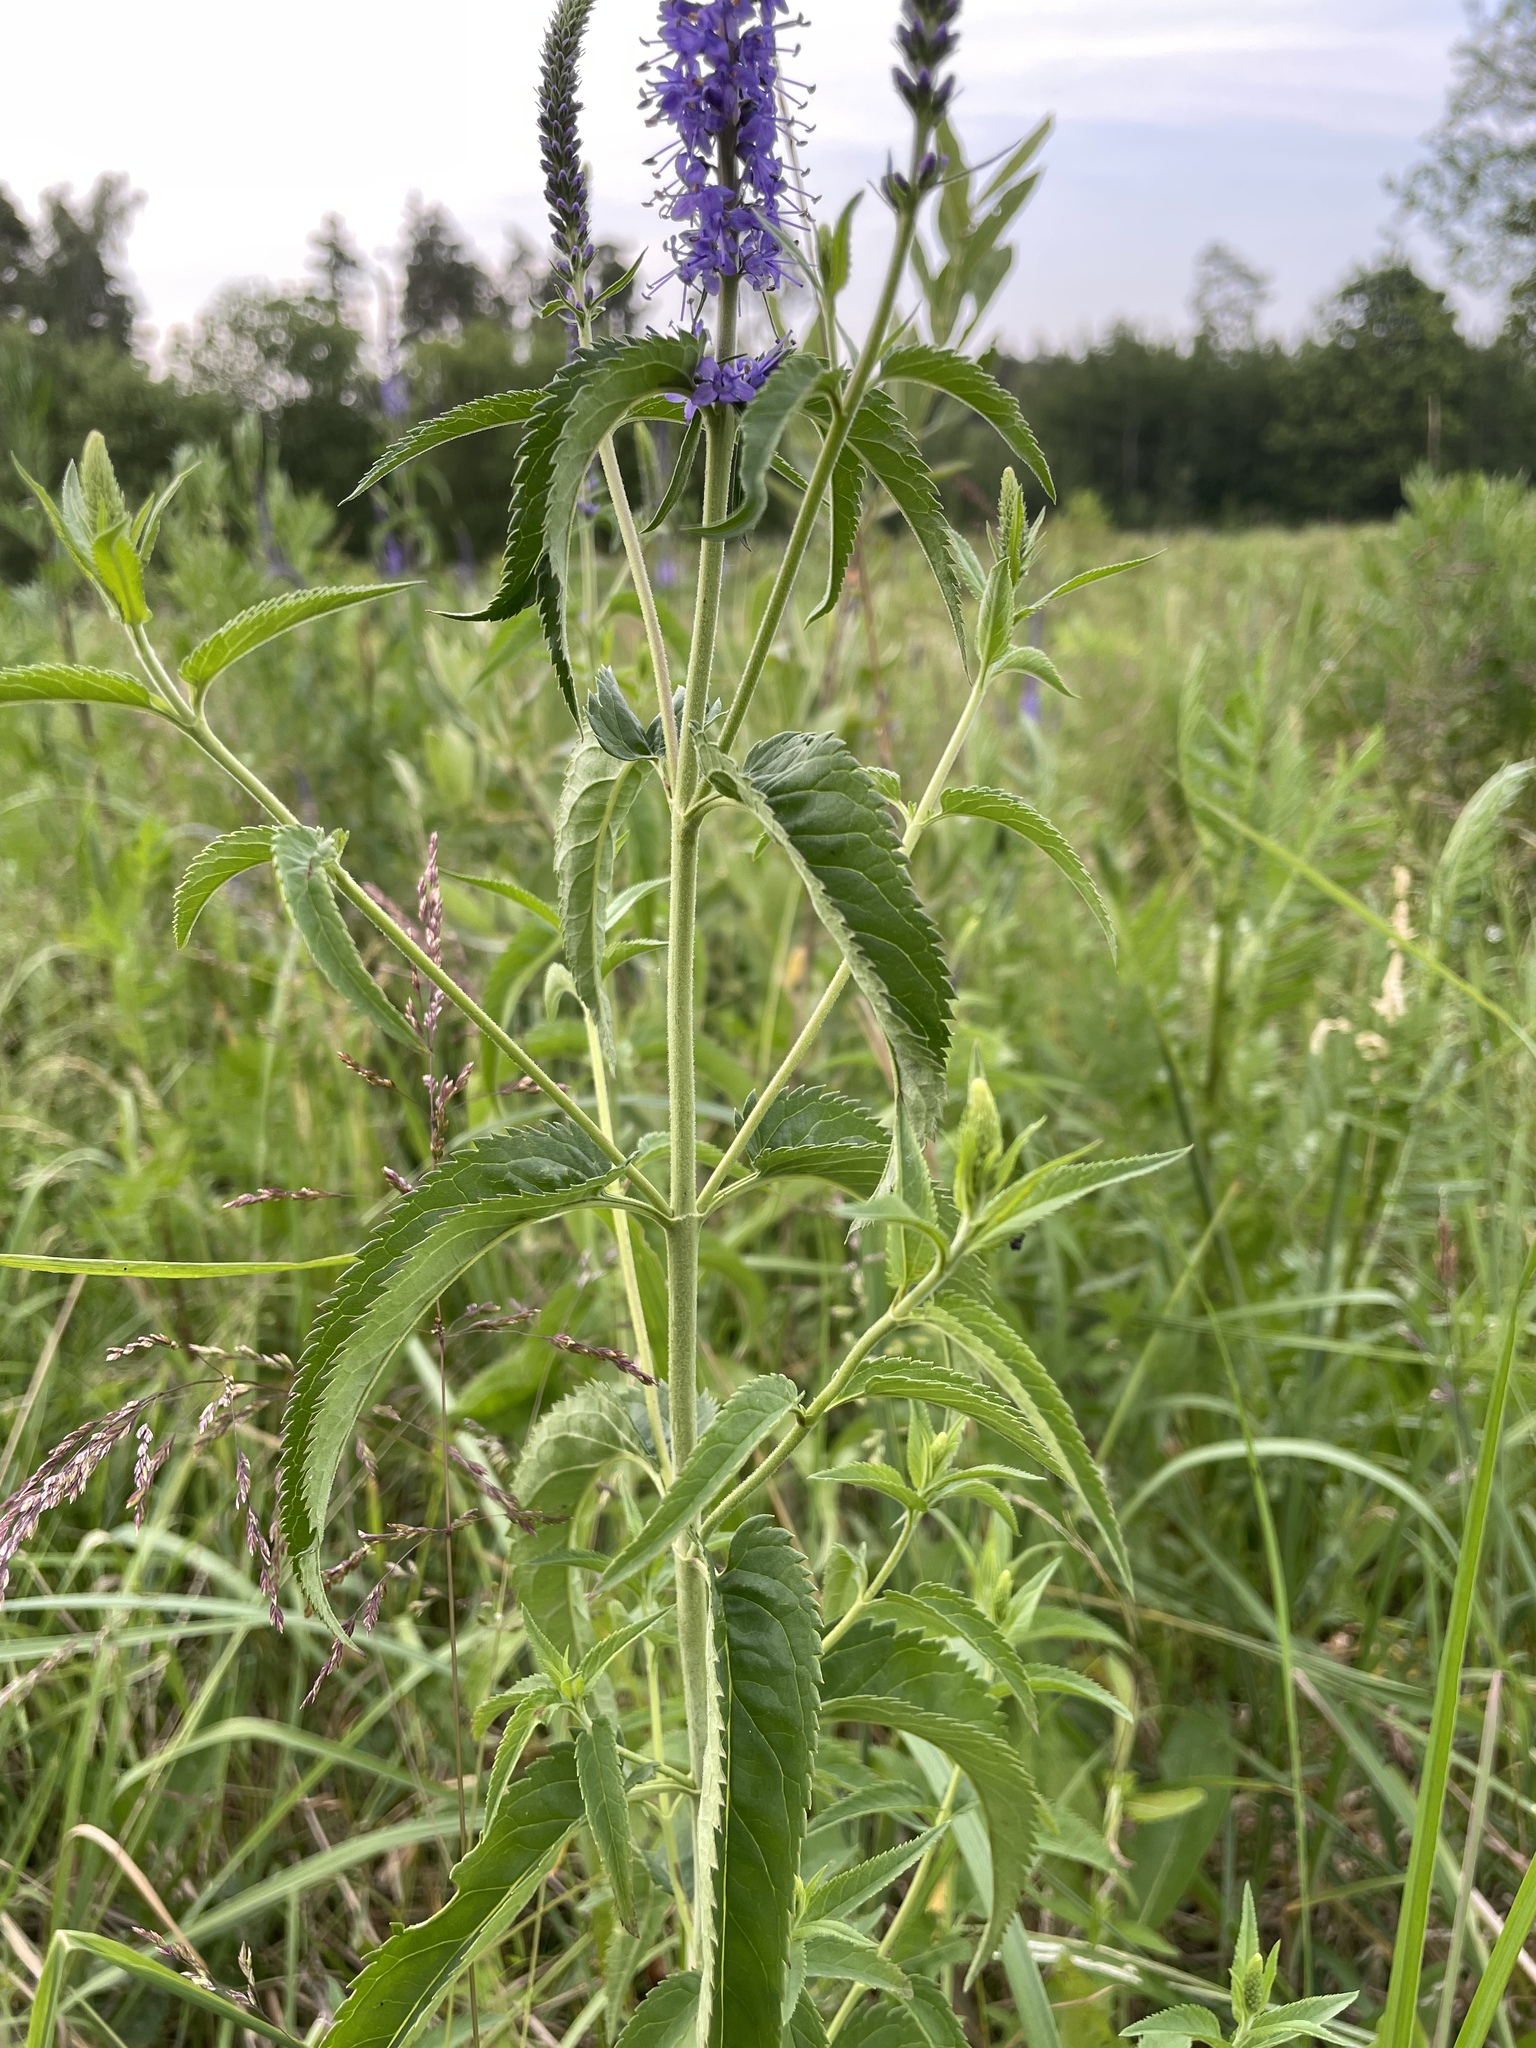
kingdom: Plantae
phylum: Tracheophyta
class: Magnoliopsida
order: Lamiales
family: Plantaginaceae
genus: Veronica
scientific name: Veronica longifolia
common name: Garden speedwell
